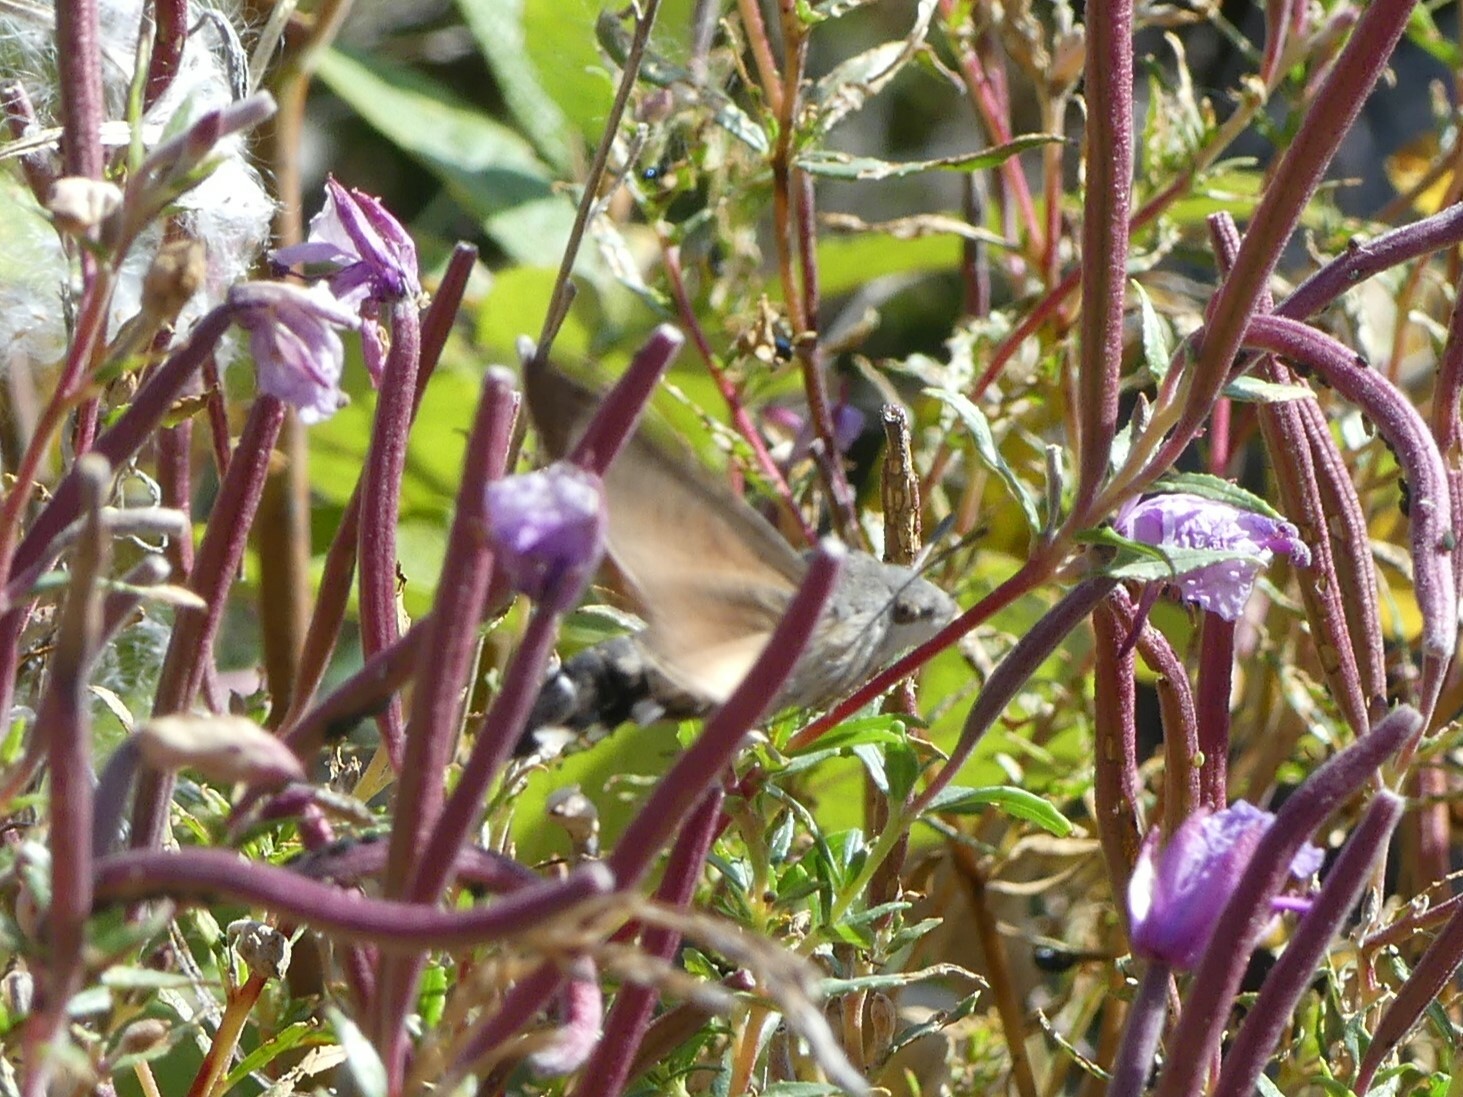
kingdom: Animalia
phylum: Arthropoda
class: Insecta
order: Lepidoptera
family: Sphingidae
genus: Macroglossum
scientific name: Macroglossum stellatarum
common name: Humming-bird hawk-moth
